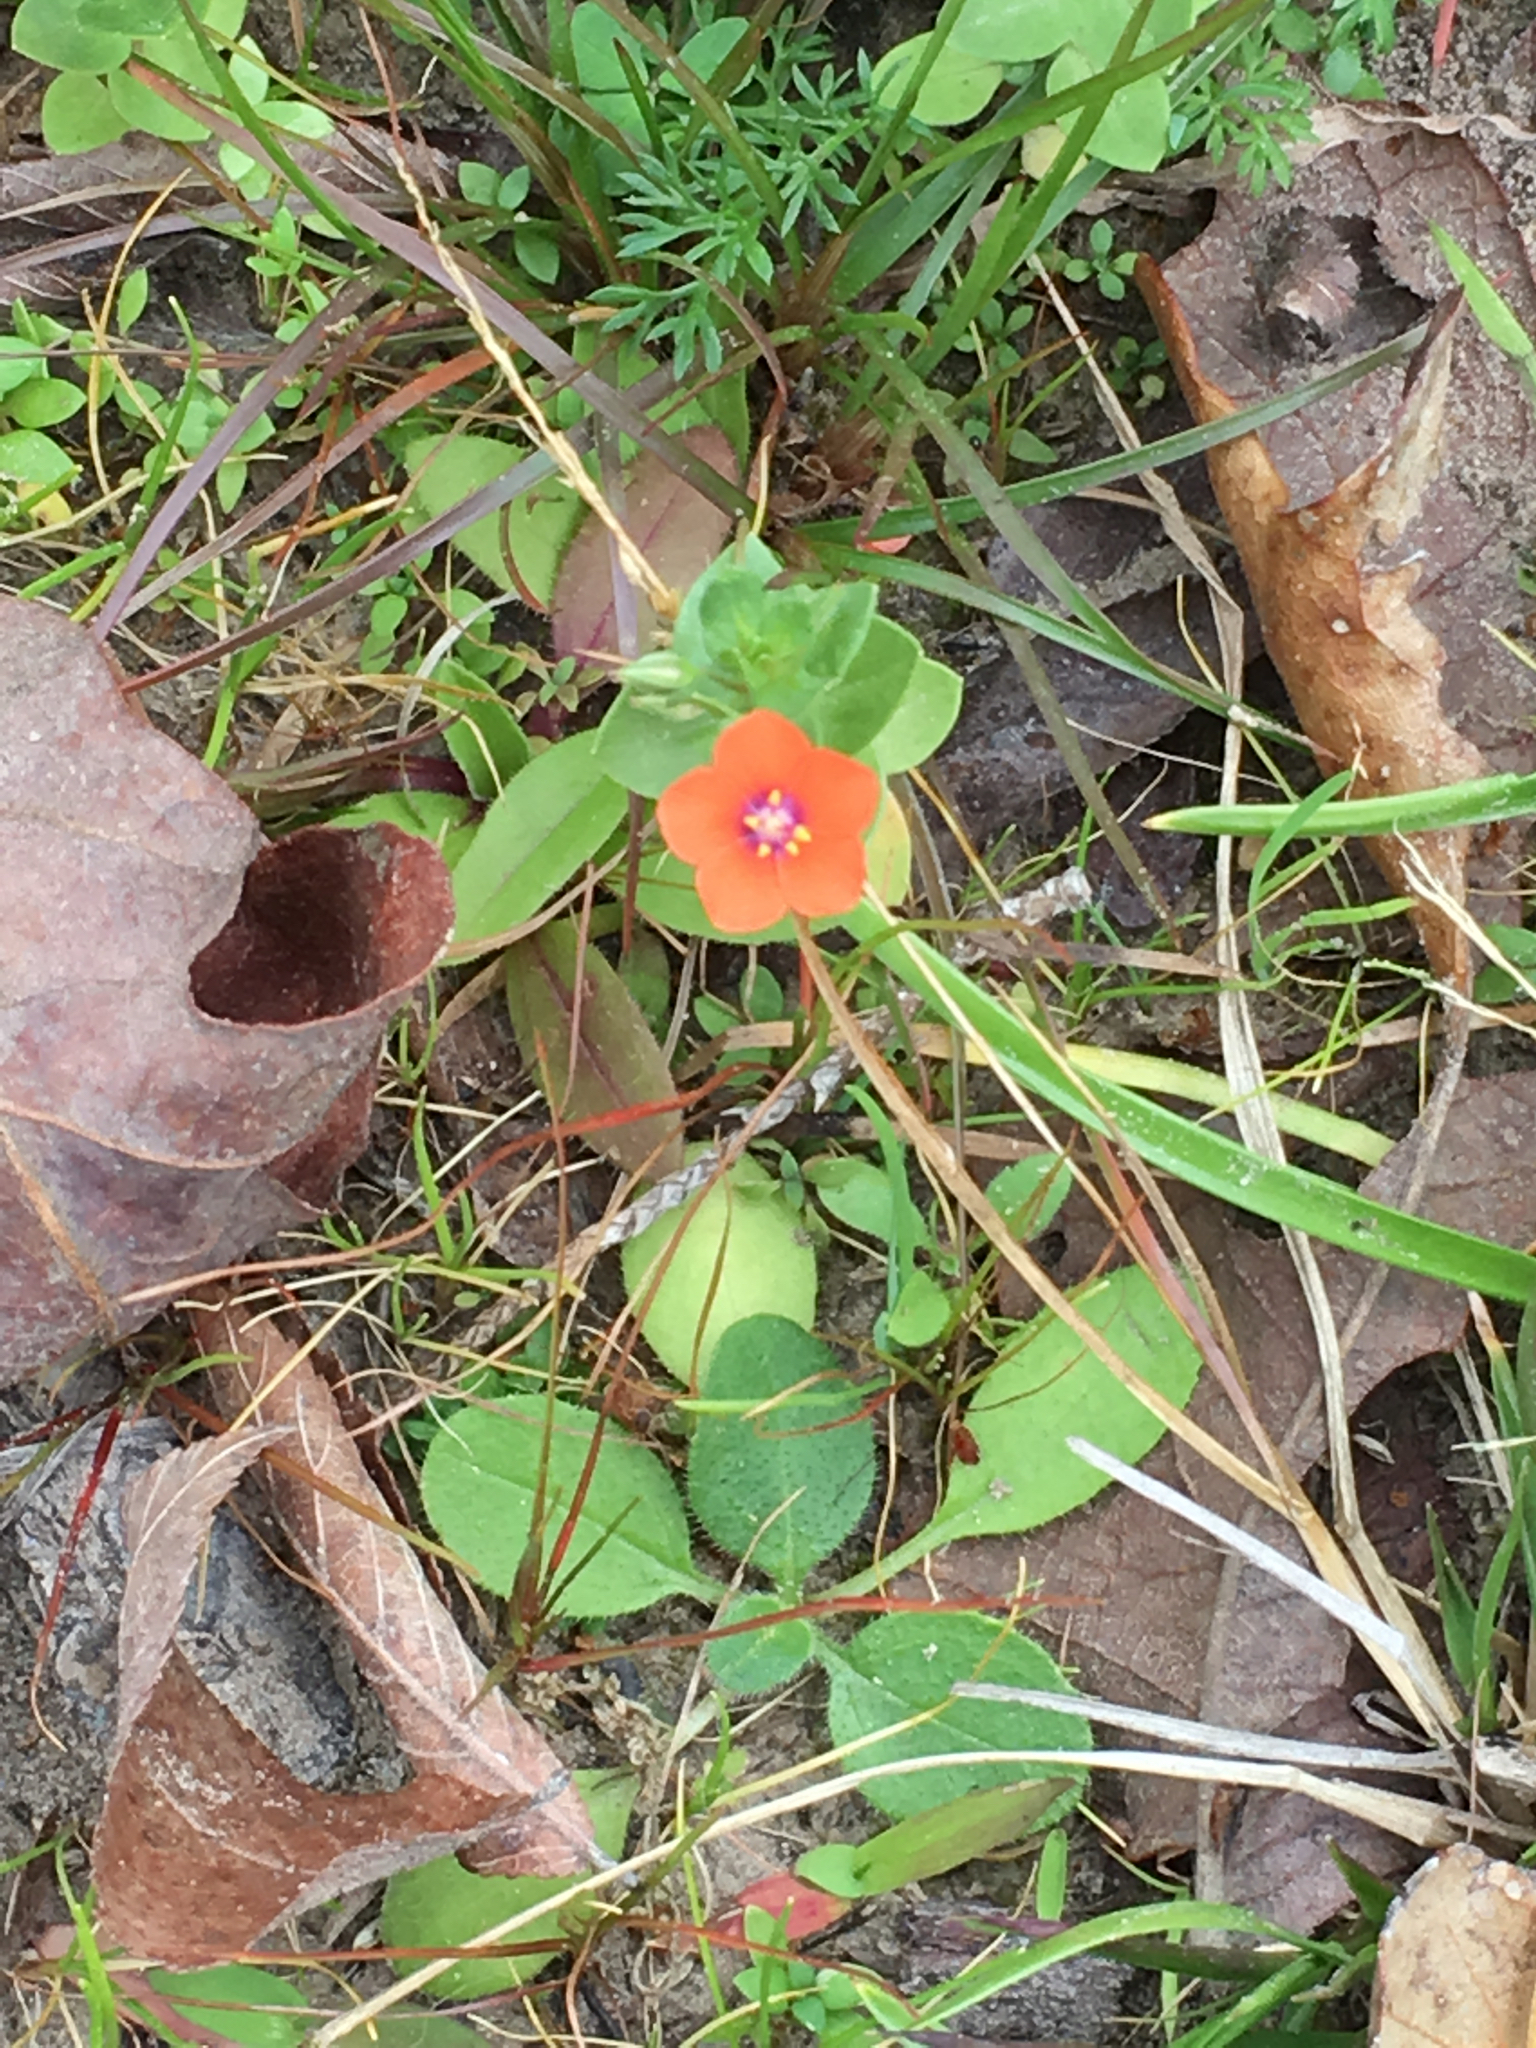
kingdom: Plantae
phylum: Tracheophyta
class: Magnoliopsida
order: Ericales
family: Primulaceae
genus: Lysimachia
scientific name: Lysimachia arvensis
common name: Scarlet pimpernel
